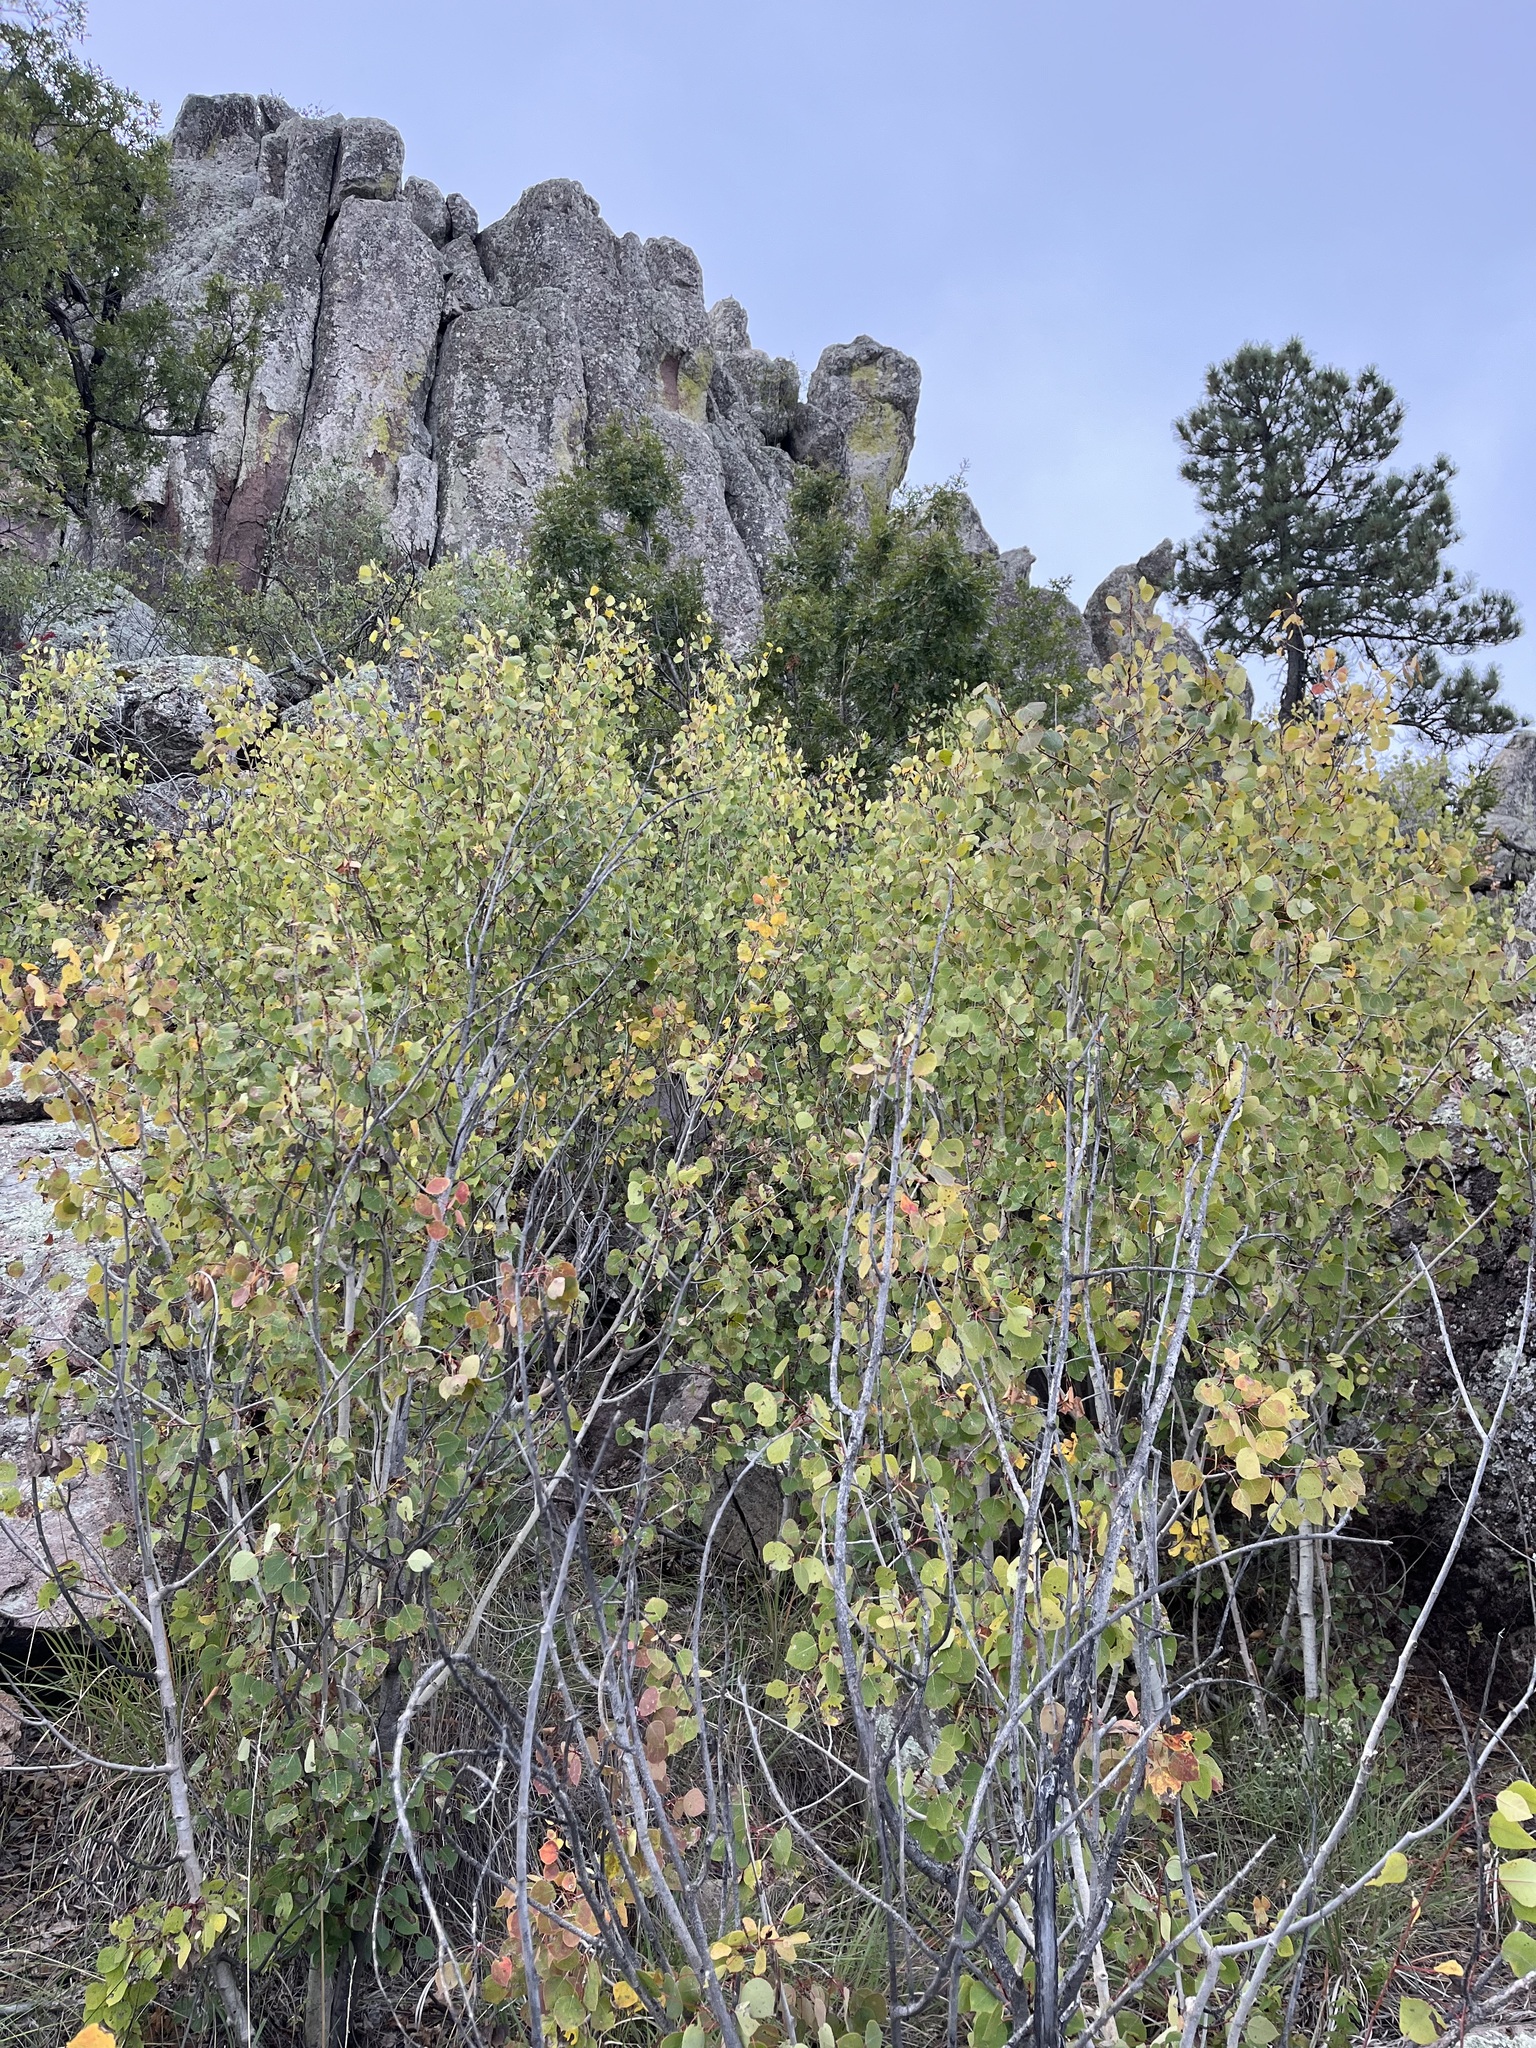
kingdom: Plantae
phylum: Tracheophyta
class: Magnoliopsida
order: Malpighiales
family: Salicaceae
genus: Populus
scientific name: Populus tremuloides
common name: Quaking aspen
